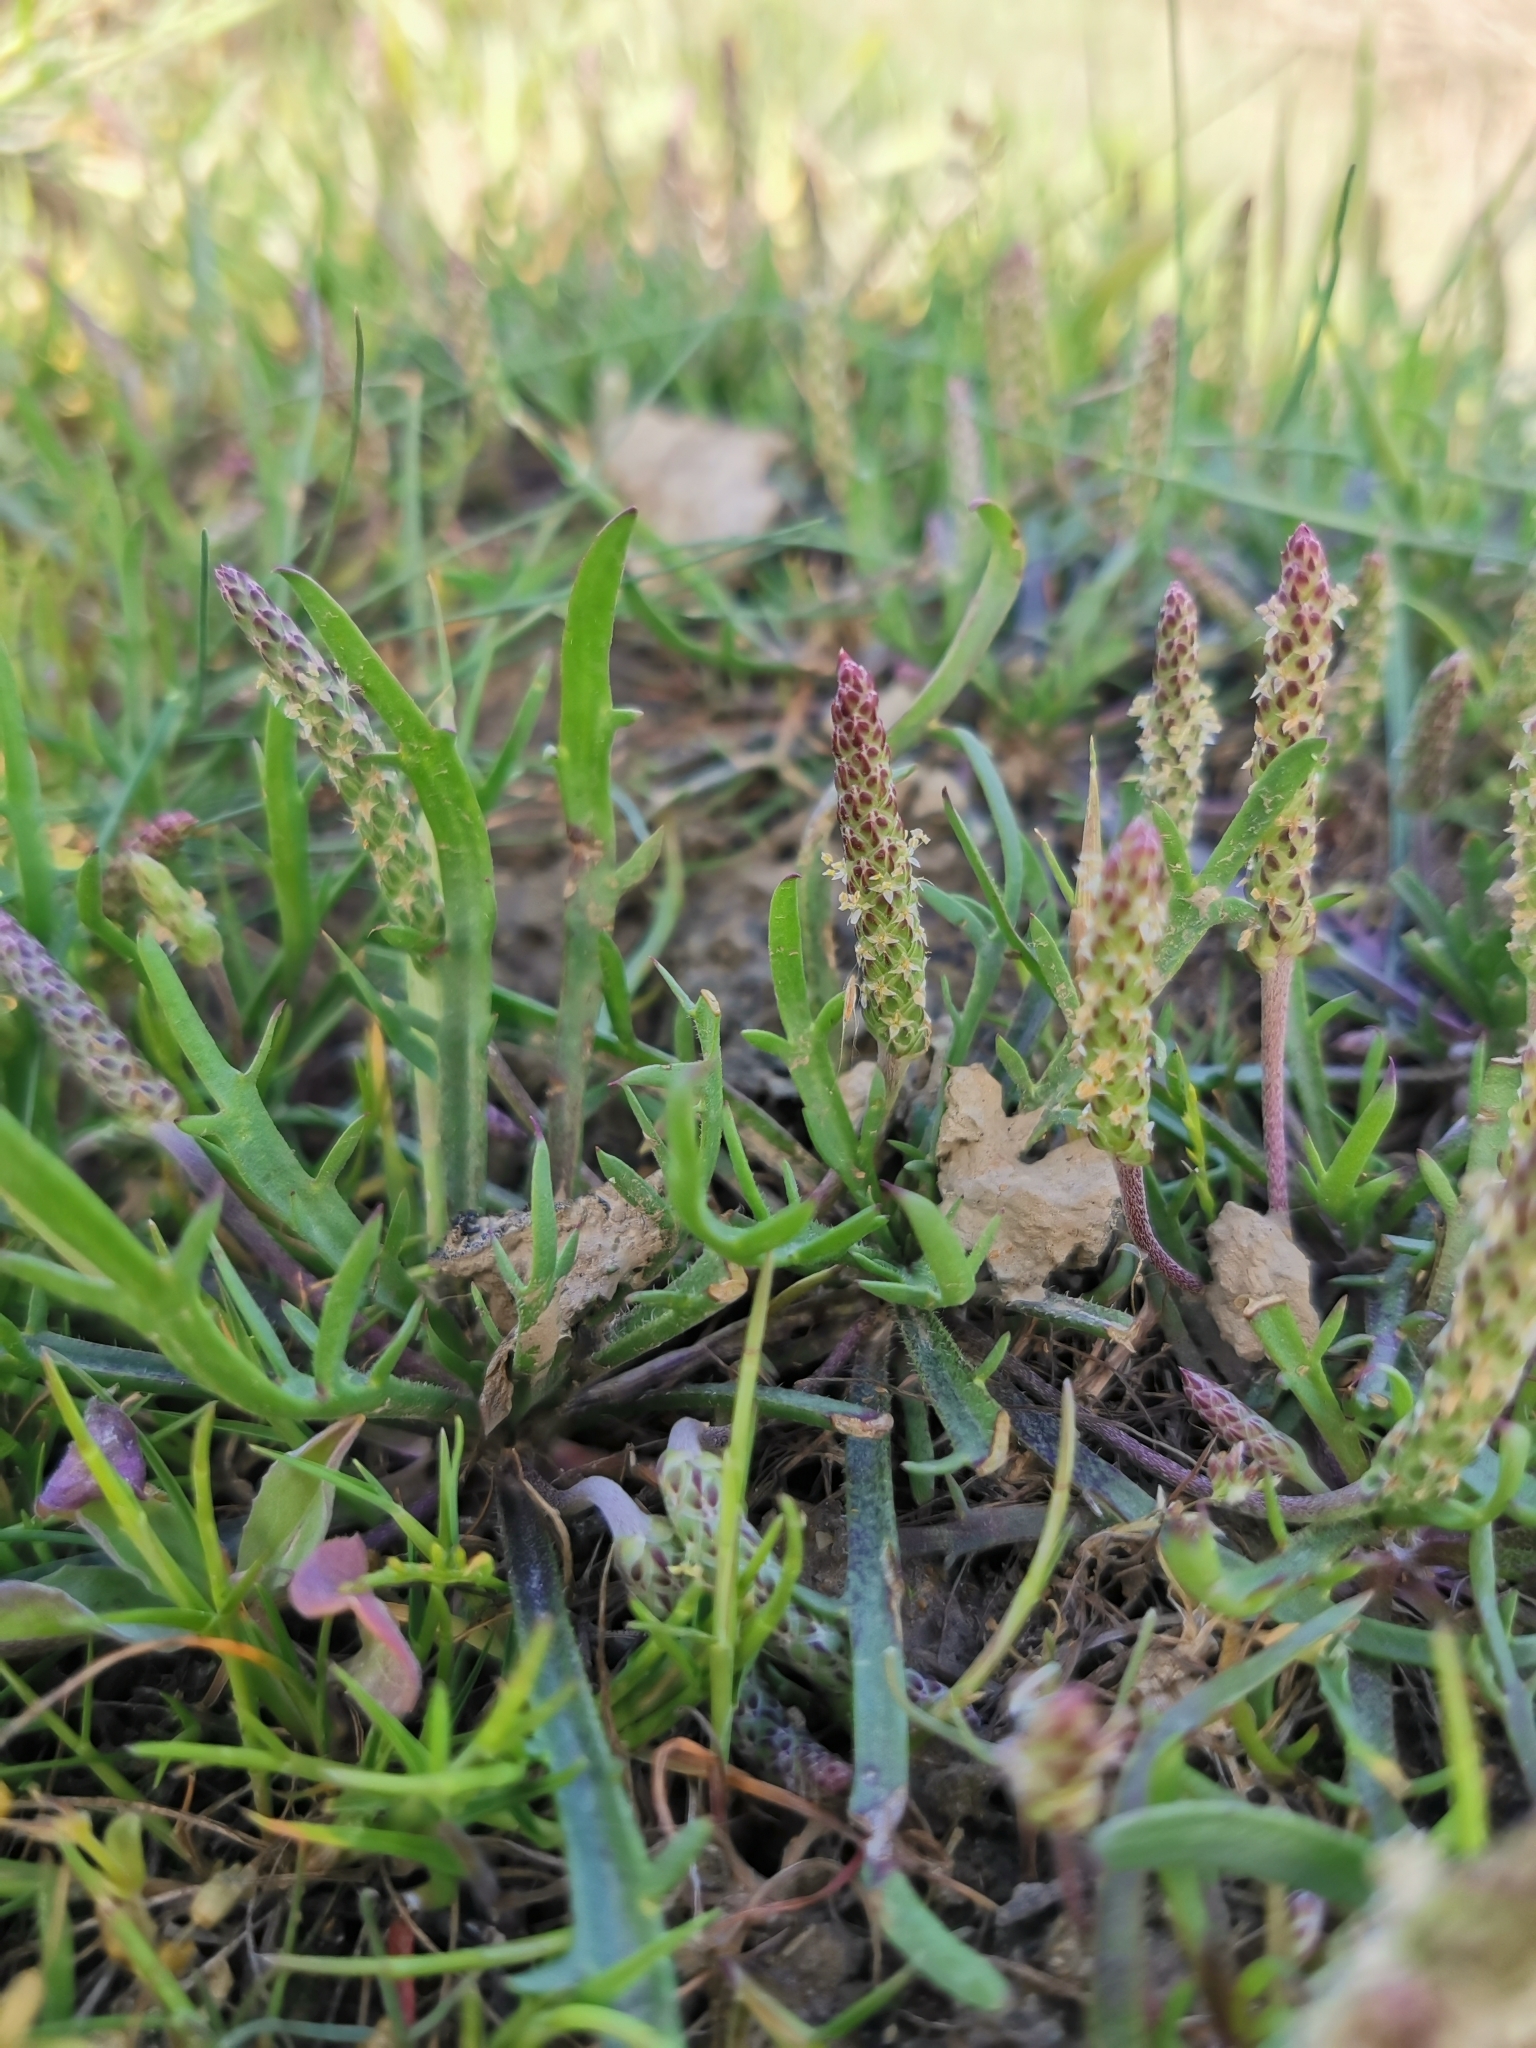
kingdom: Plantae
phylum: Tracheophyta
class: Magnoliopsida
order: Lamiales
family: Plantaginaceae
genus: Plantago
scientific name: Plantago coronopus
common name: Buck's-horn plantain
